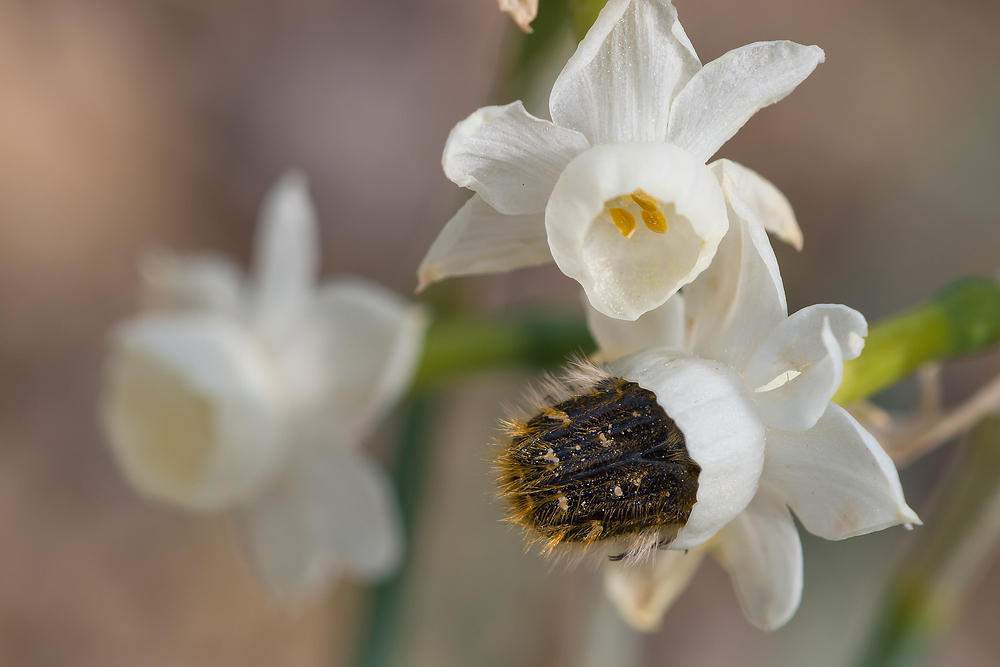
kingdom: Animalia
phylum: Arthropoda
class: Insecta
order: Coleoptera
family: Scarabaeidae
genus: Tropinota
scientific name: Tropinota squalida
